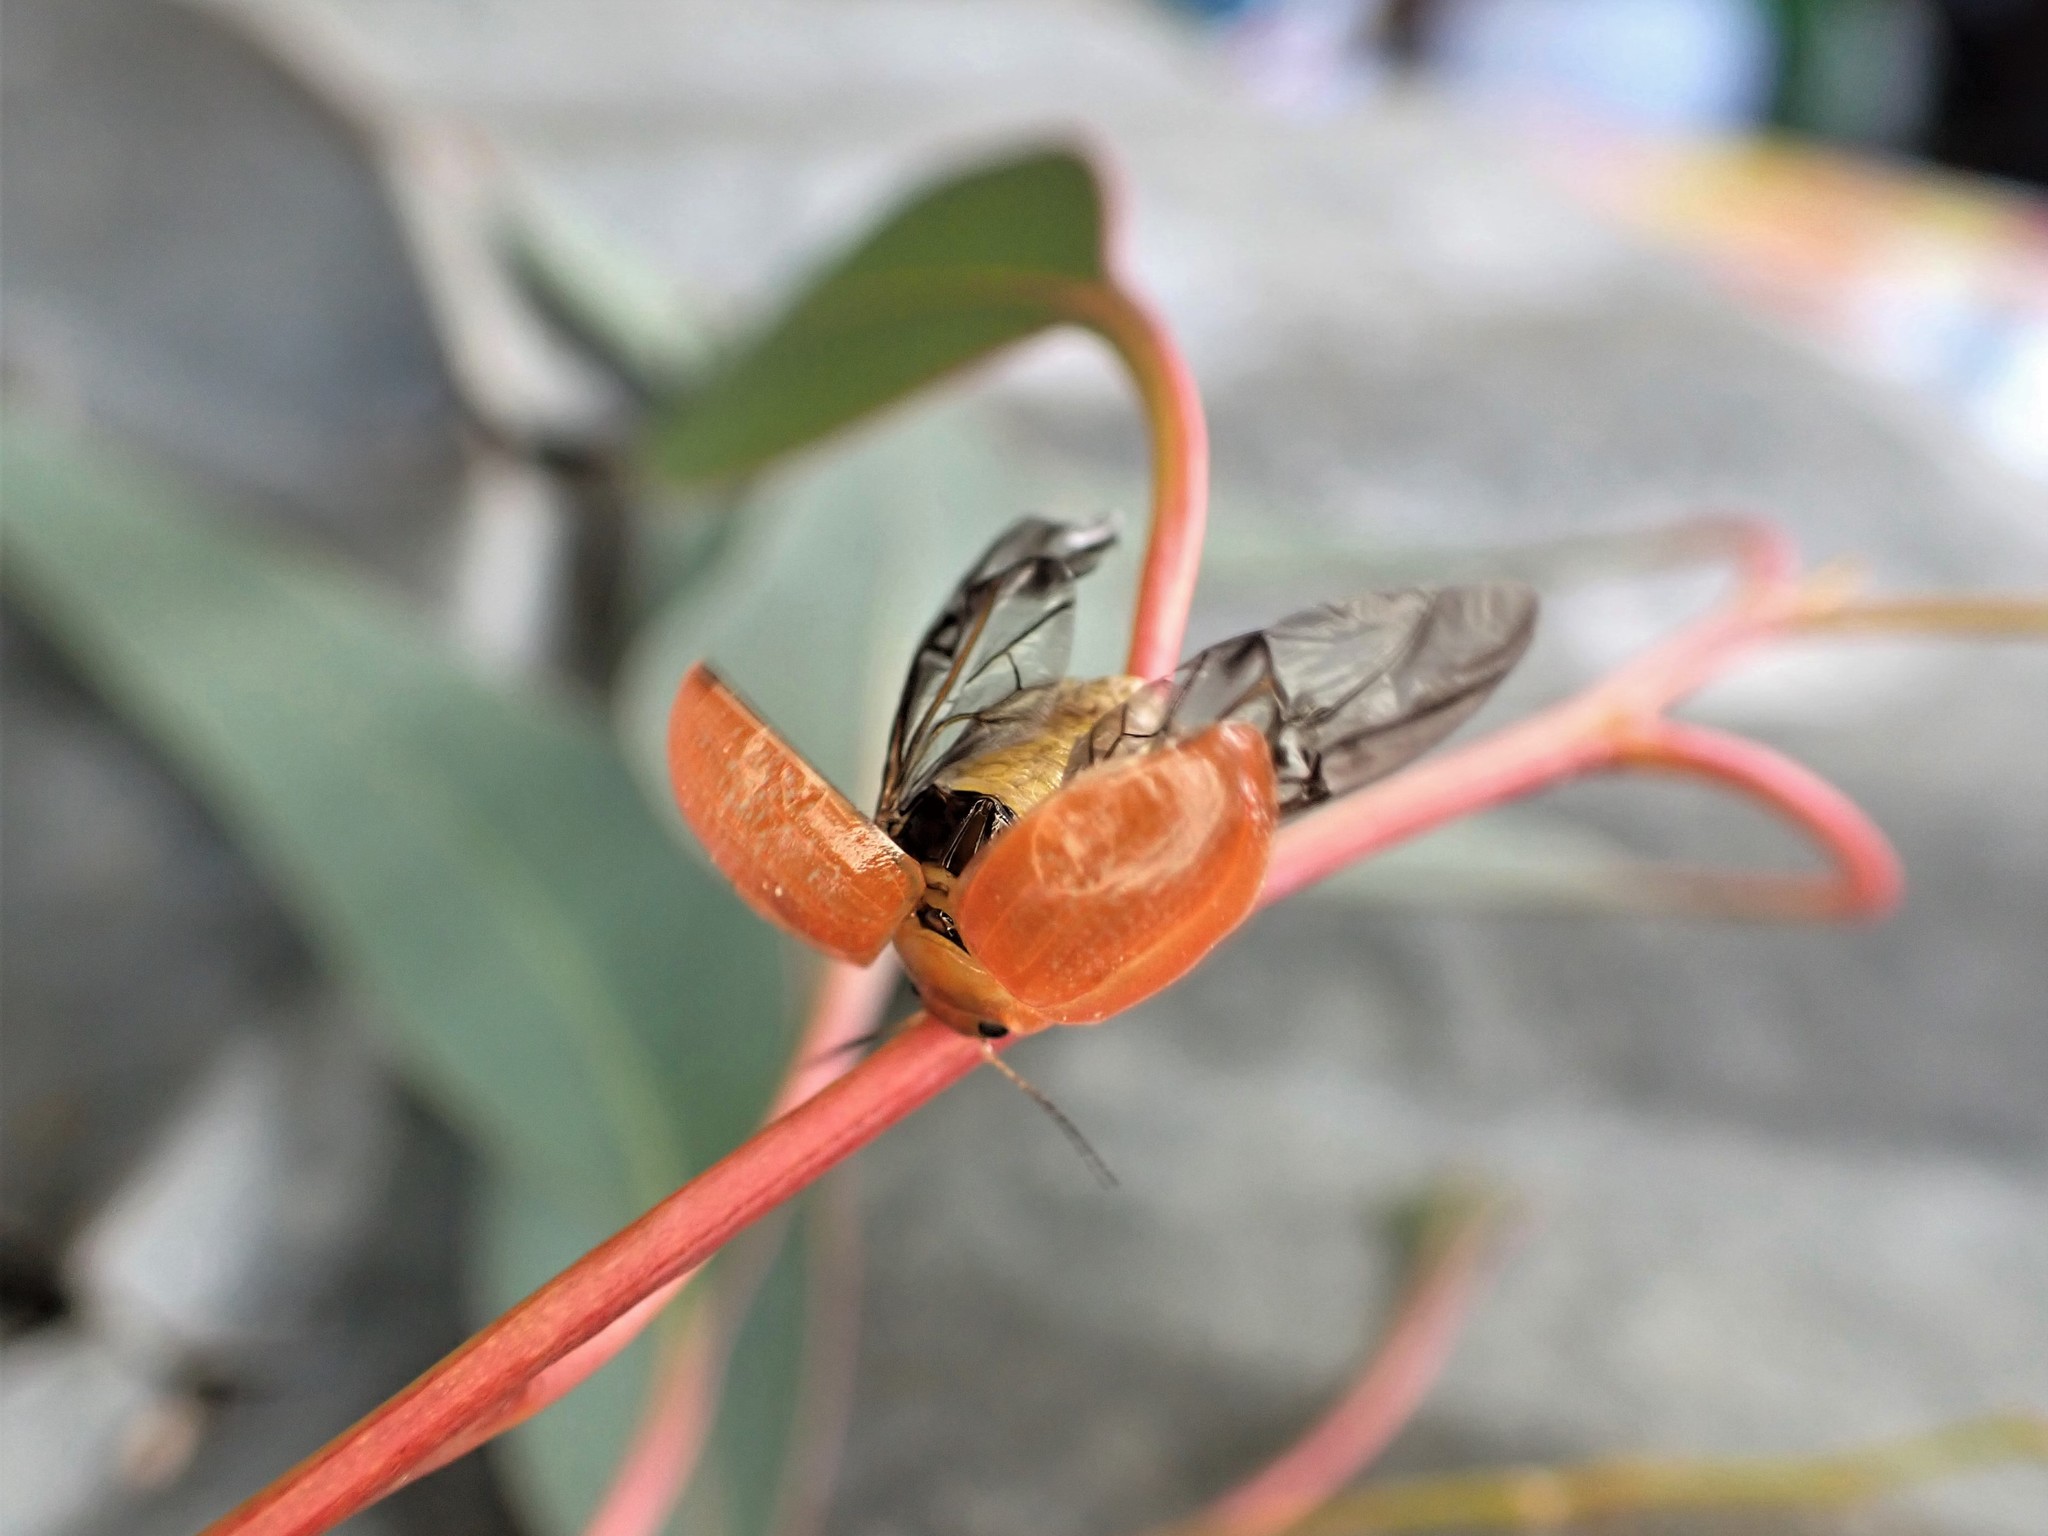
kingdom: Animalia
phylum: Arthropoda
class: Insecta
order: Coleoptera
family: Chrysomelidae
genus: Paropsisterna
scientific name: Paropsisterna cloelia
